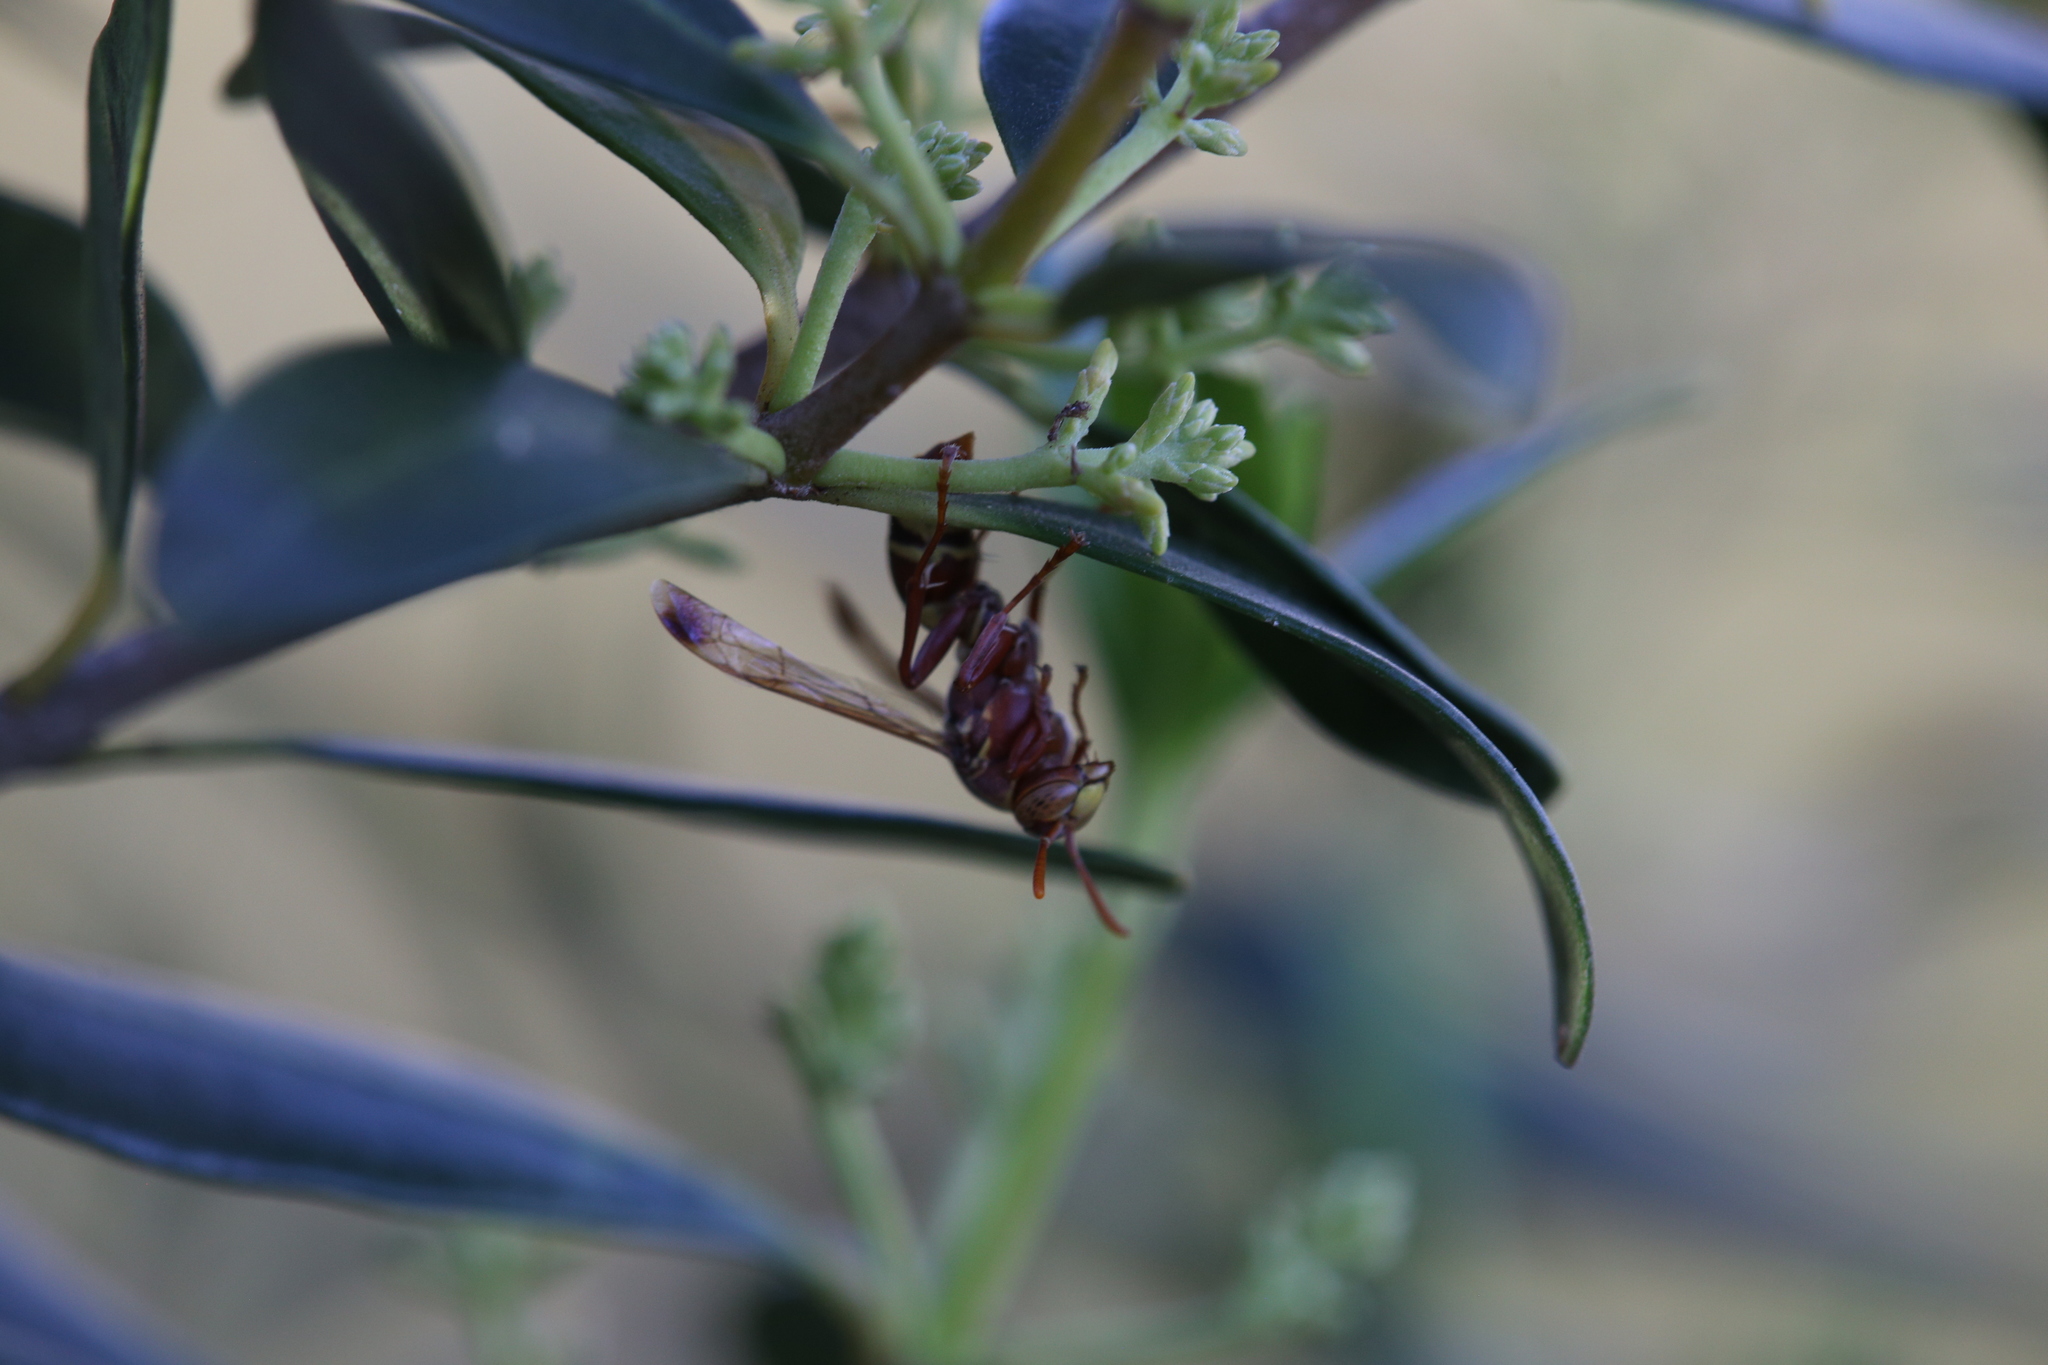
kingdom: Animalia
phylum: Arthropoda
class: Insecta
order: Hymenoptera
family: Eumenidae
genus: Polistes
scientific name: Polistes stigma
